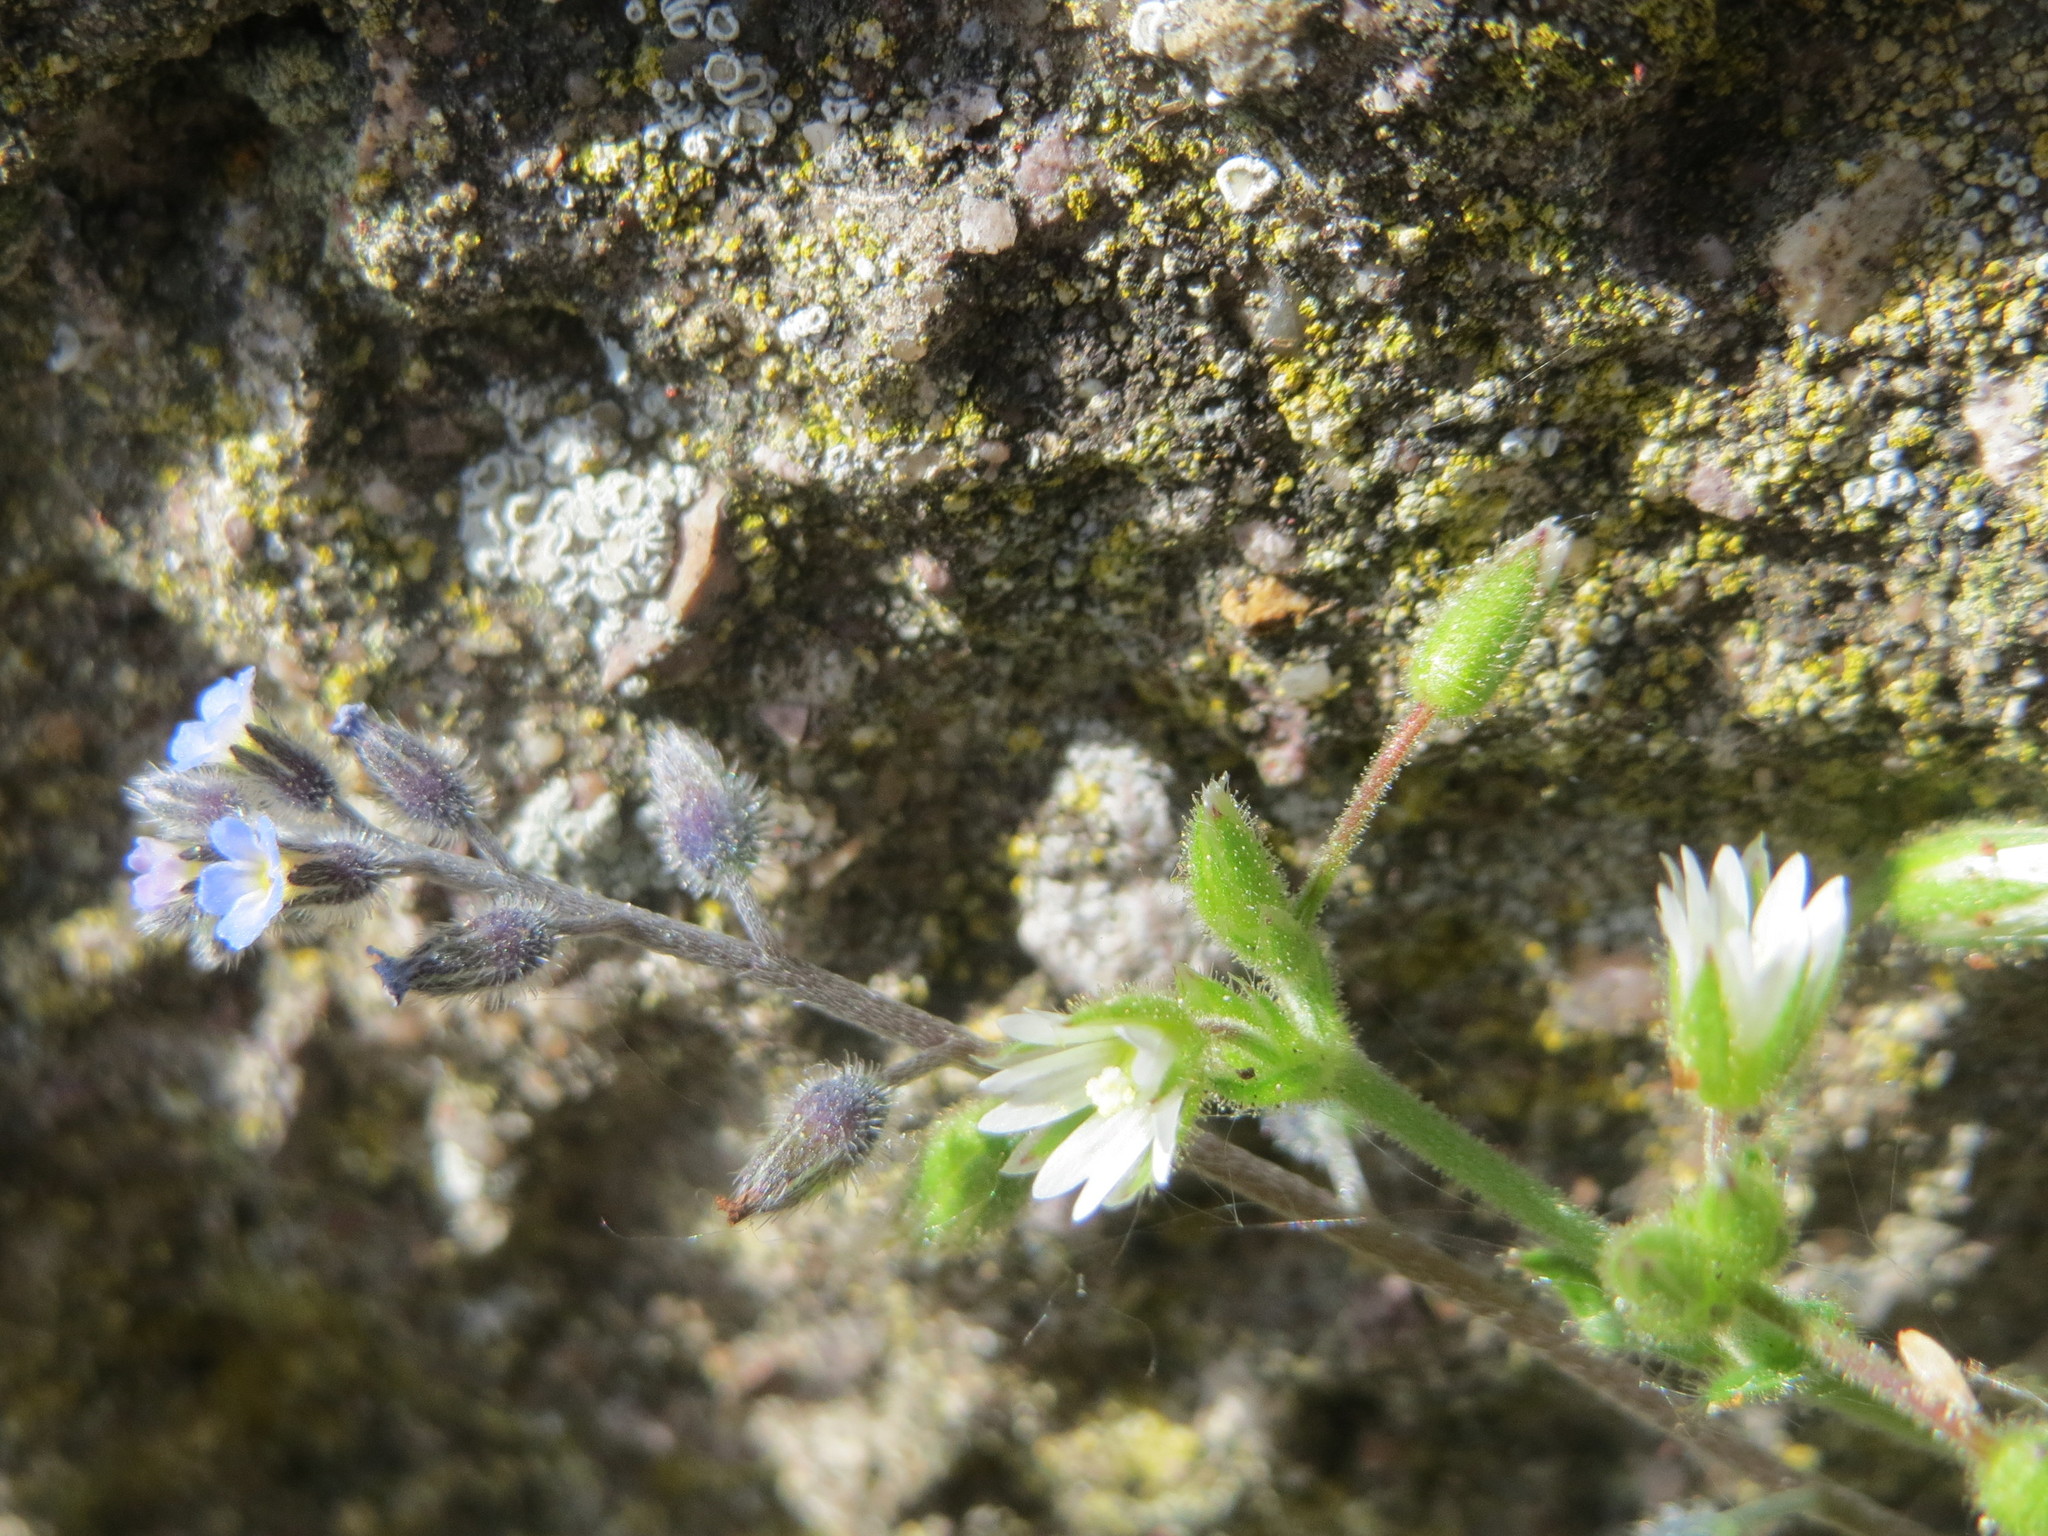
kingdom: Plantae
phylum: Tracheophyta
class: Magnoliopsida
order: Caryophyllales
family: Caryophyllaceae
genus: Cerastium
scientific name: Cerastium glomeratum
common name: Sticky chickweed
